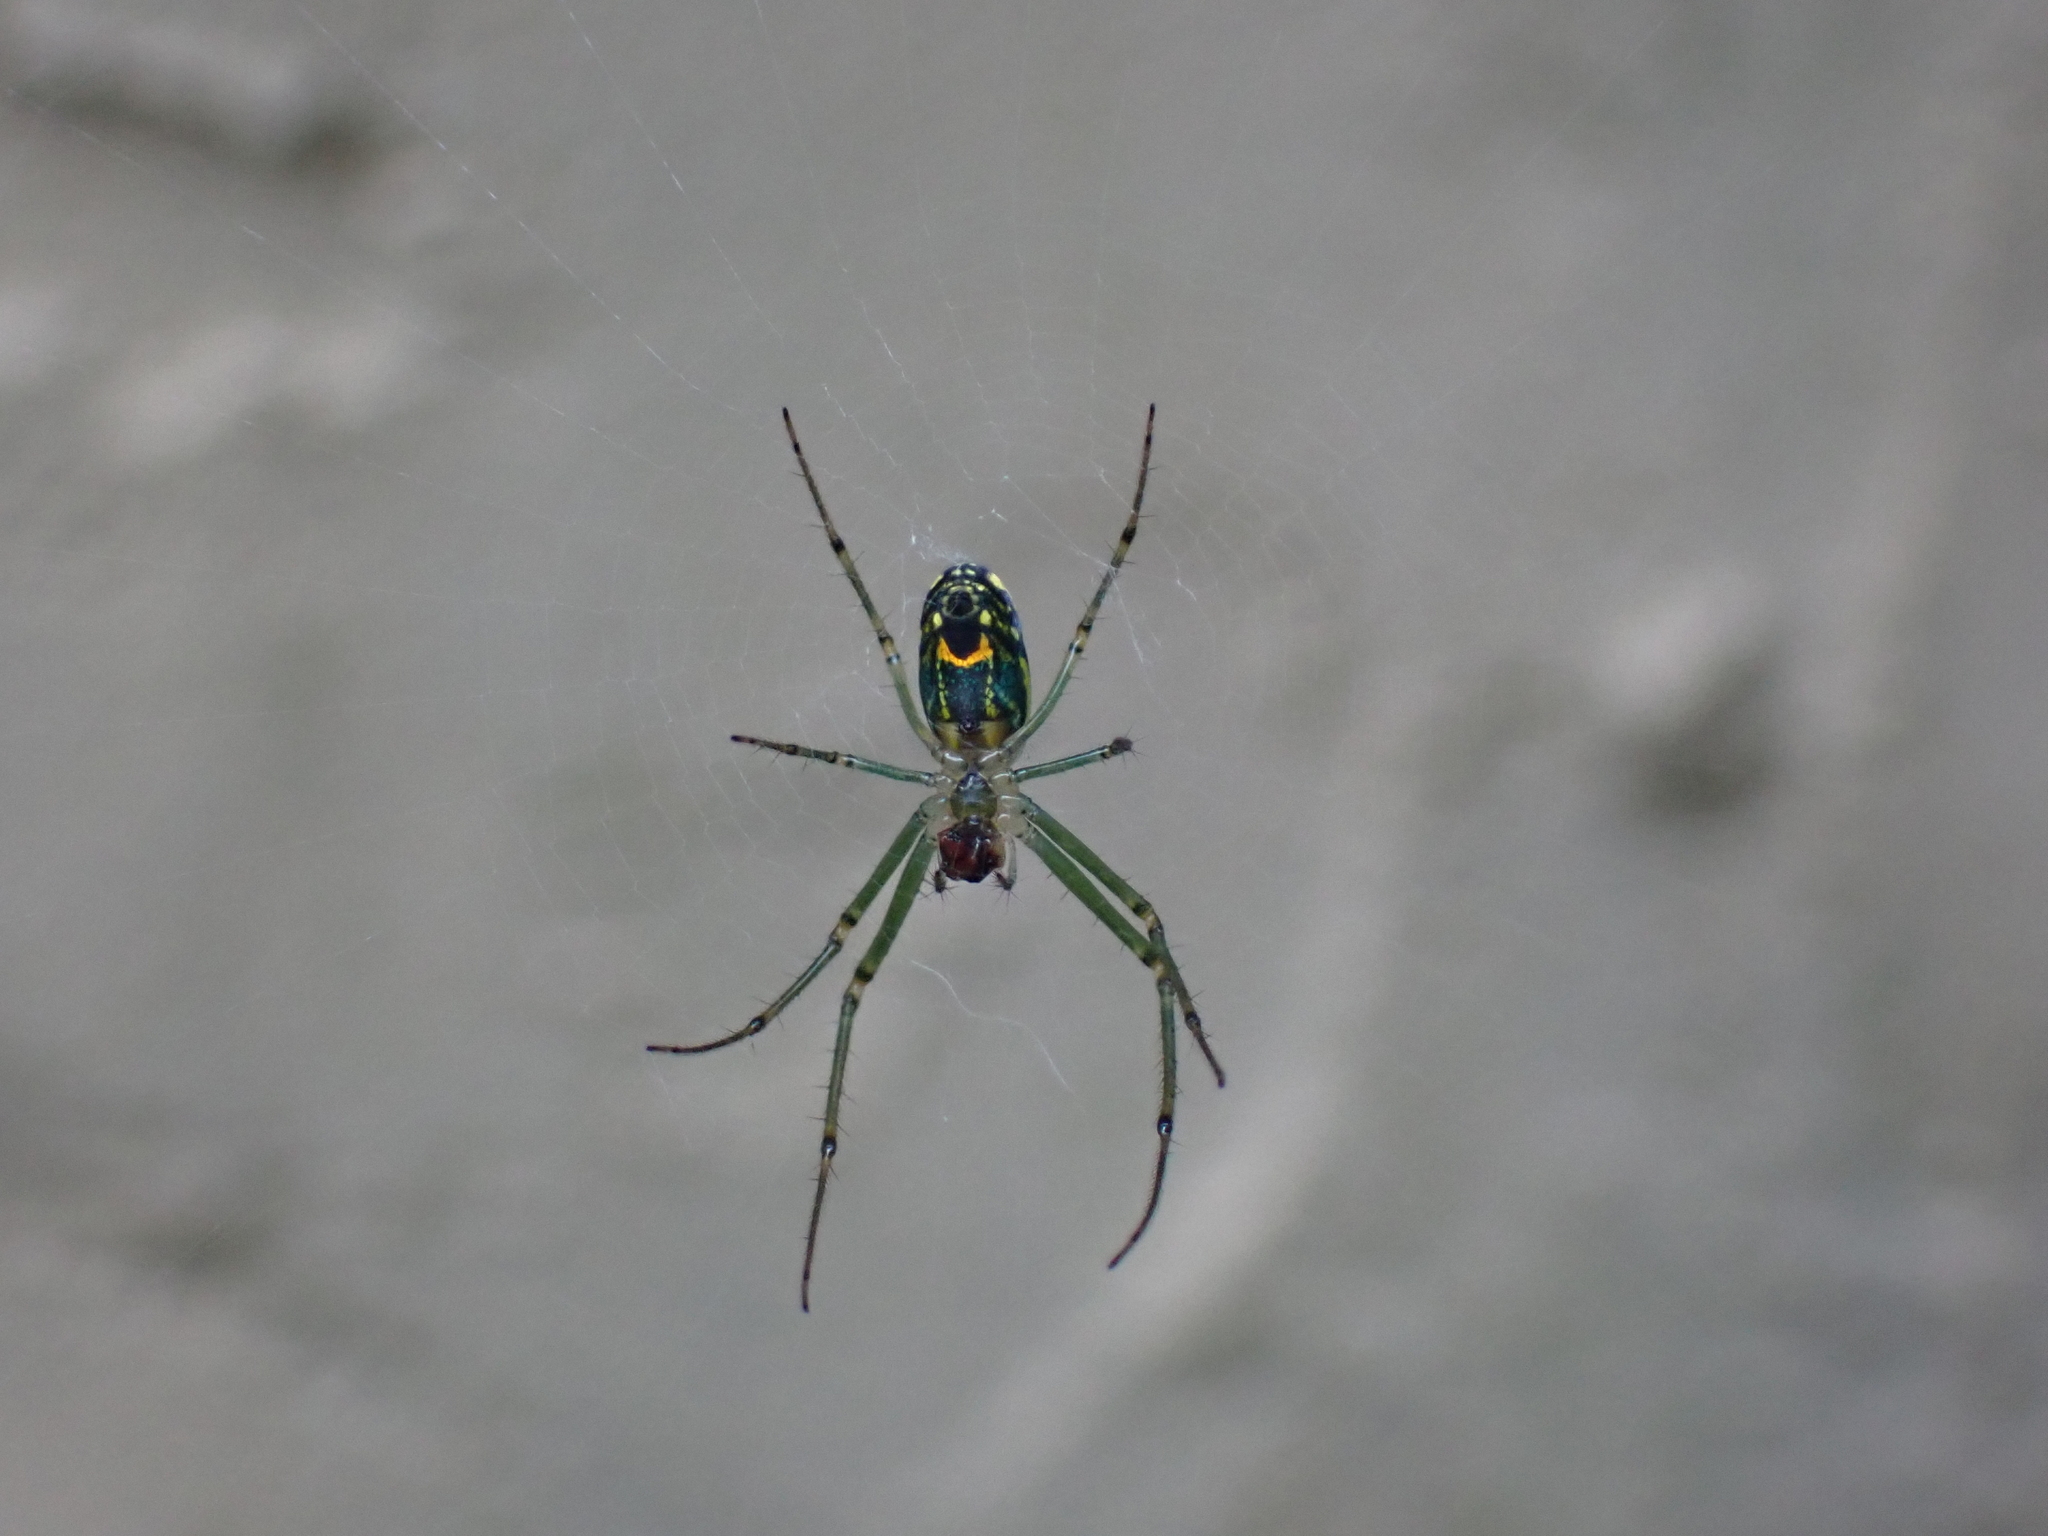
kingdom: Animalia
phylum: Arthropoda
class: Arachnida
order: Araneae
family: Tetragnathidae
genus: Leucauge
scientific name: Leucauge venusta
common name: Longjawed orb weavers
